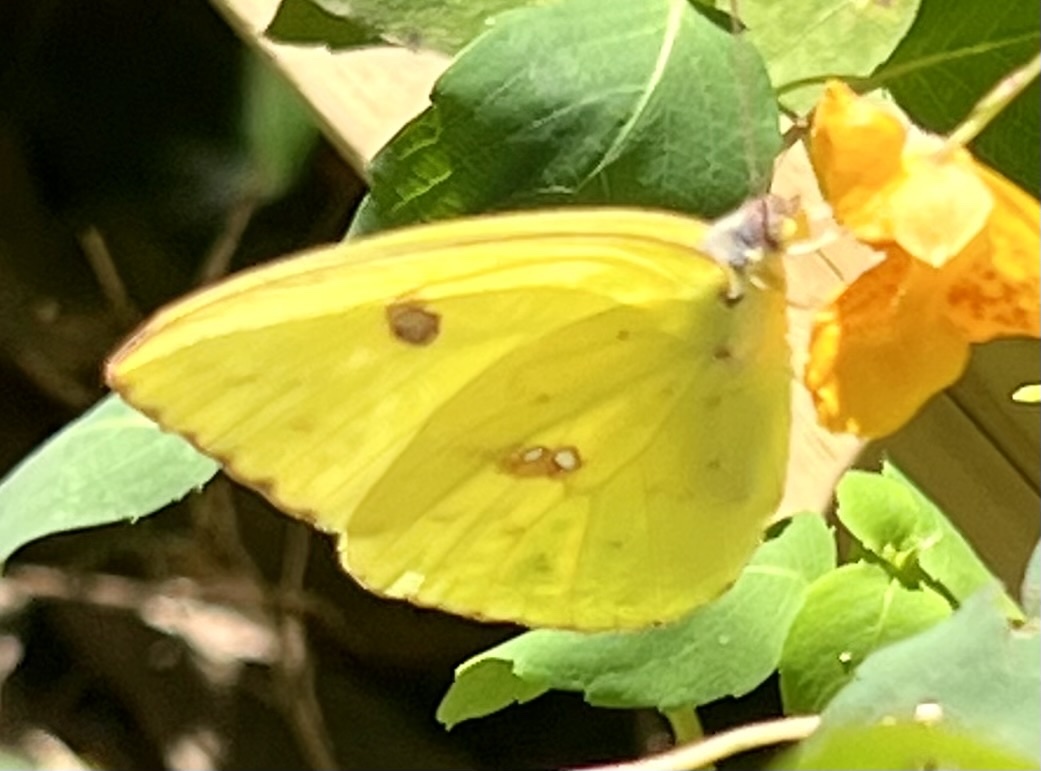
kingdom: Animalia
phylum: Arthropoda
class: Insecta
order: Lepidoptera
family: Pieridae
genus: Phoebis
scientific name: Phoebis sennae
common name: Cloudless sulphur
